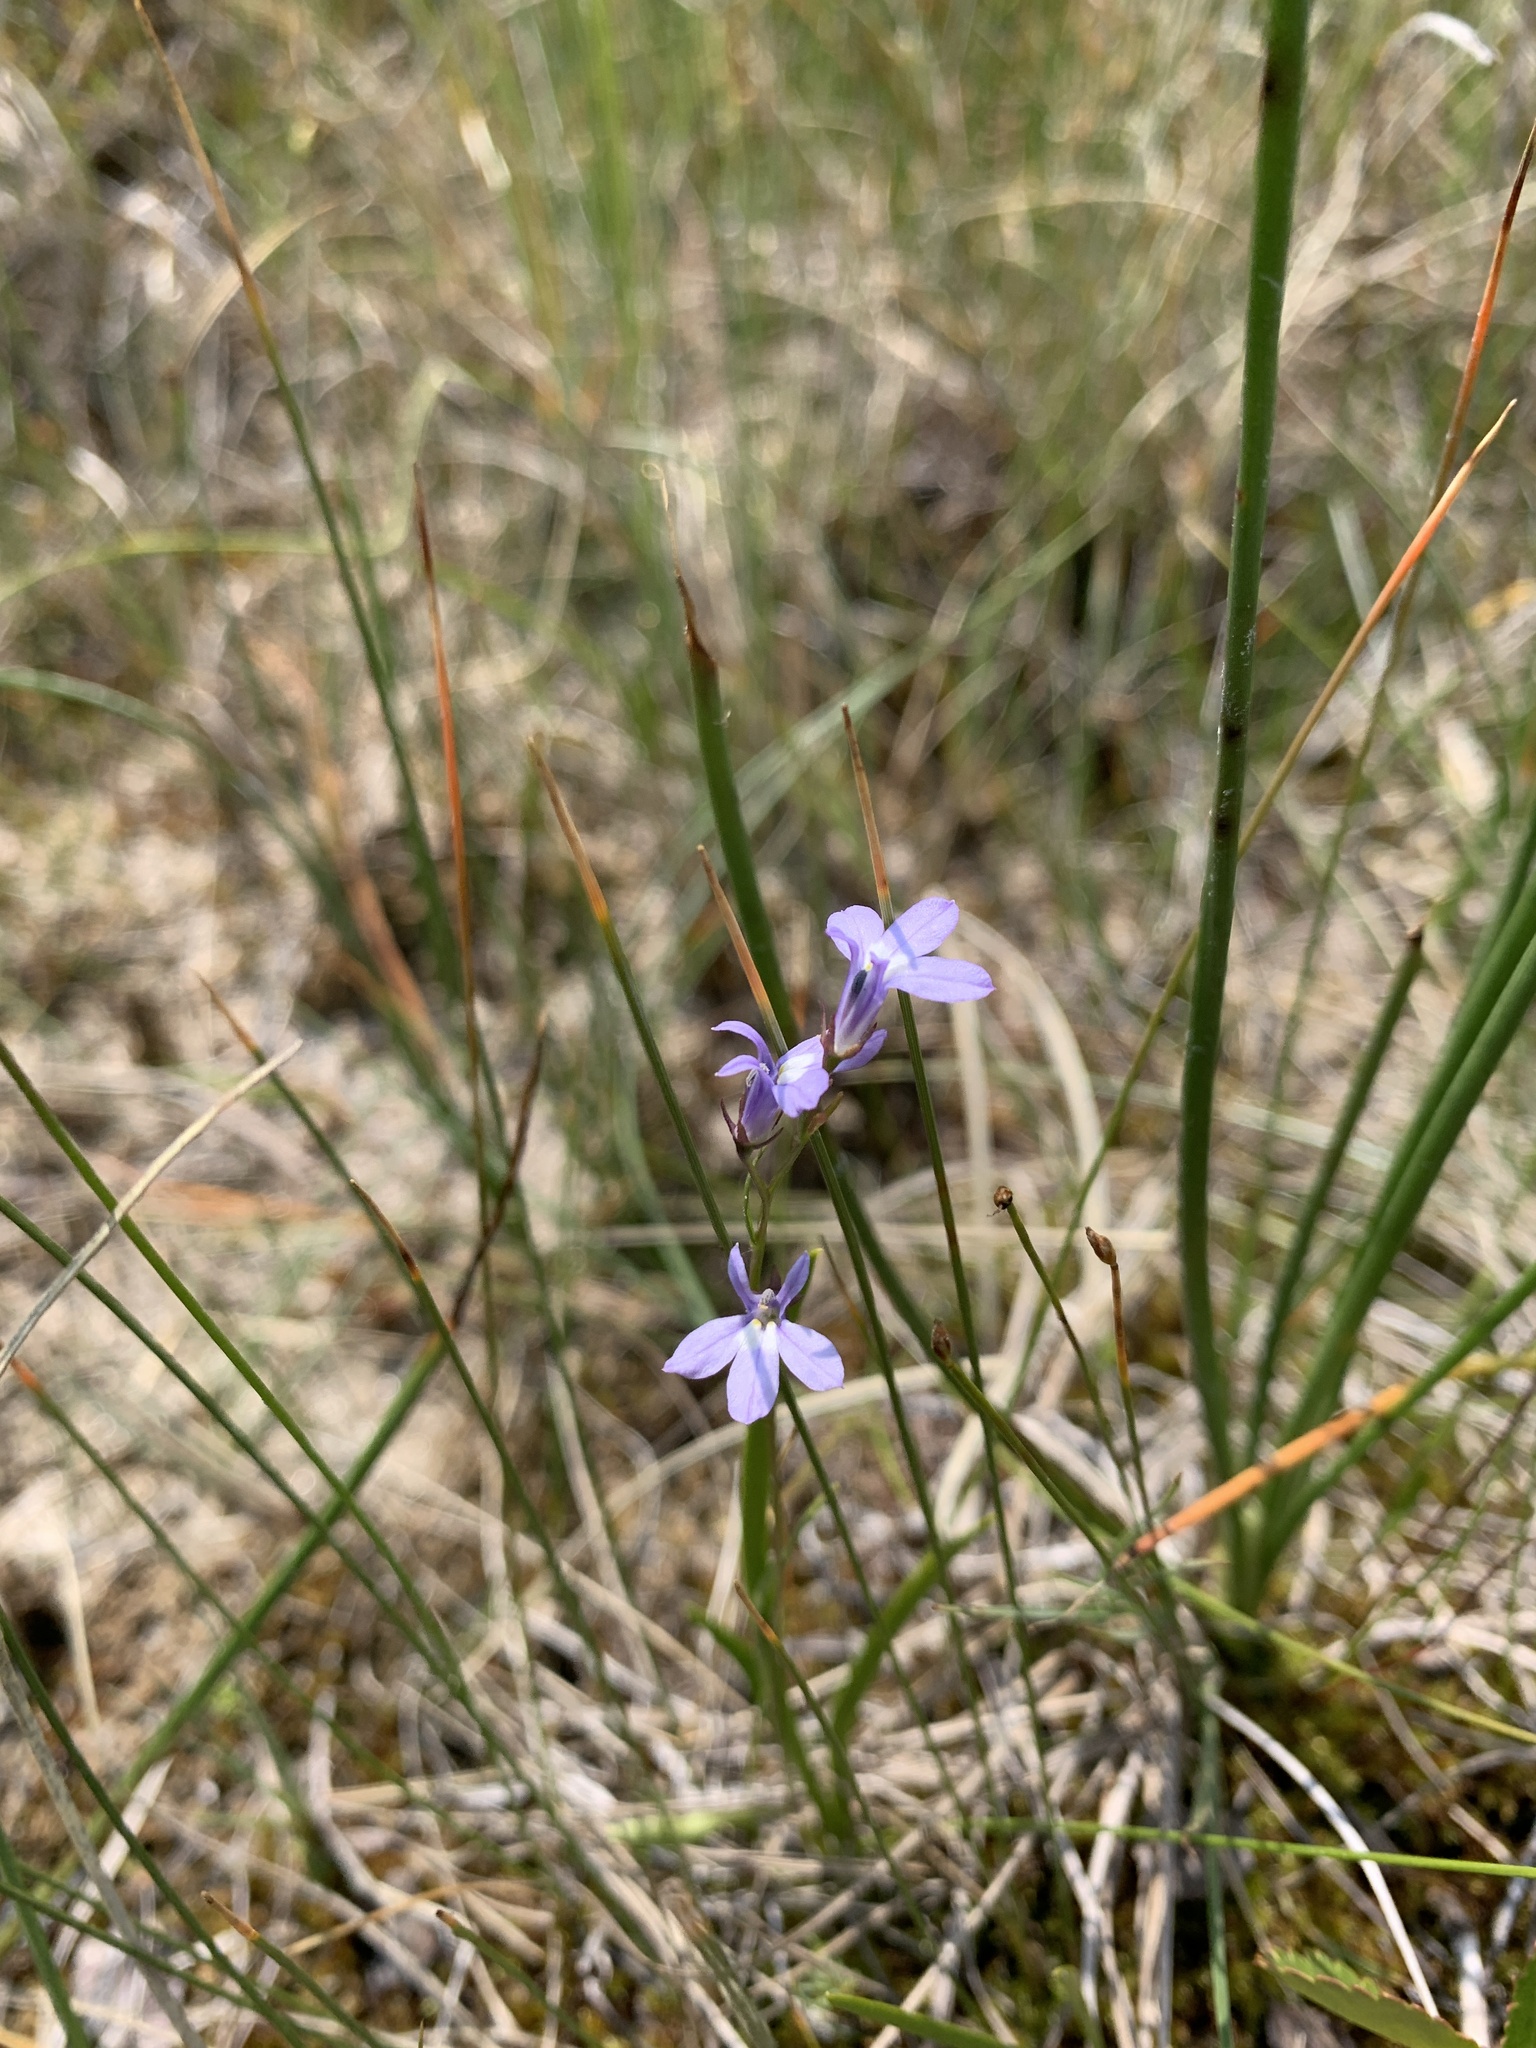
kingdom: Plantae
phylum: Tracheophyta
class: Magnoliopsida
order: Asterales
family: Campanulaceae
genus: Lobelia
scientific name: Lobelia kalmii
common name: Kalm's lobelia
